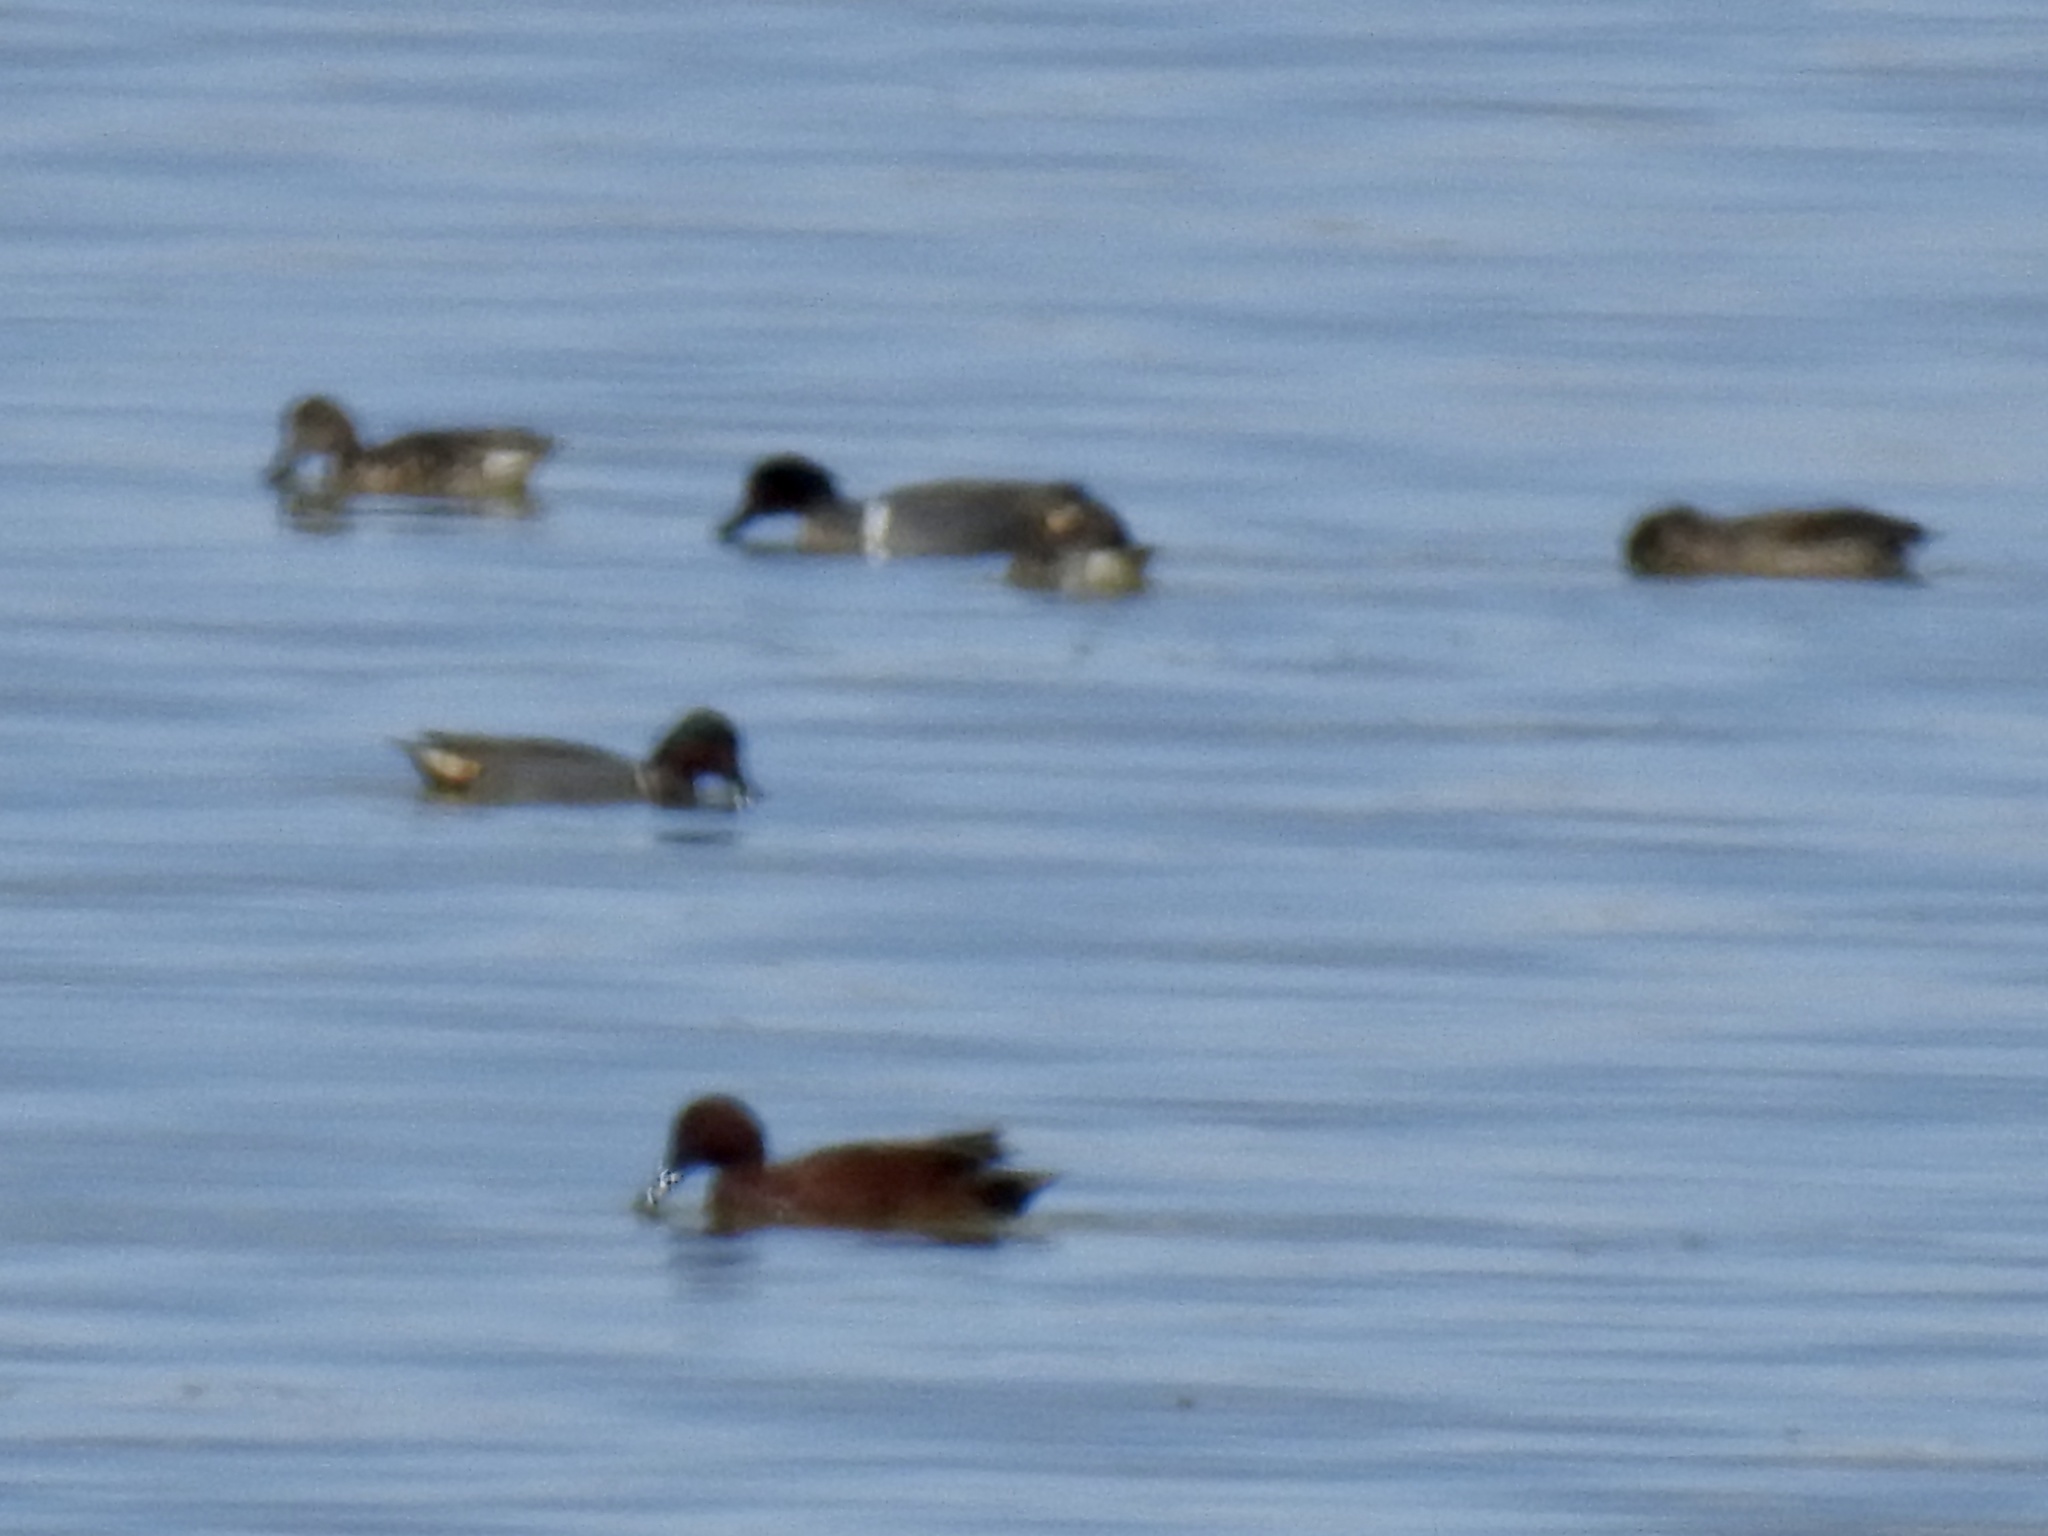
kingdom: Animalia
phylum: Chordata
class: Aves
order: Anseriformes
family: Anatidae
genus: Spatula
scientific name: Spatula cyanoptera
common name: Cinnamon teal
